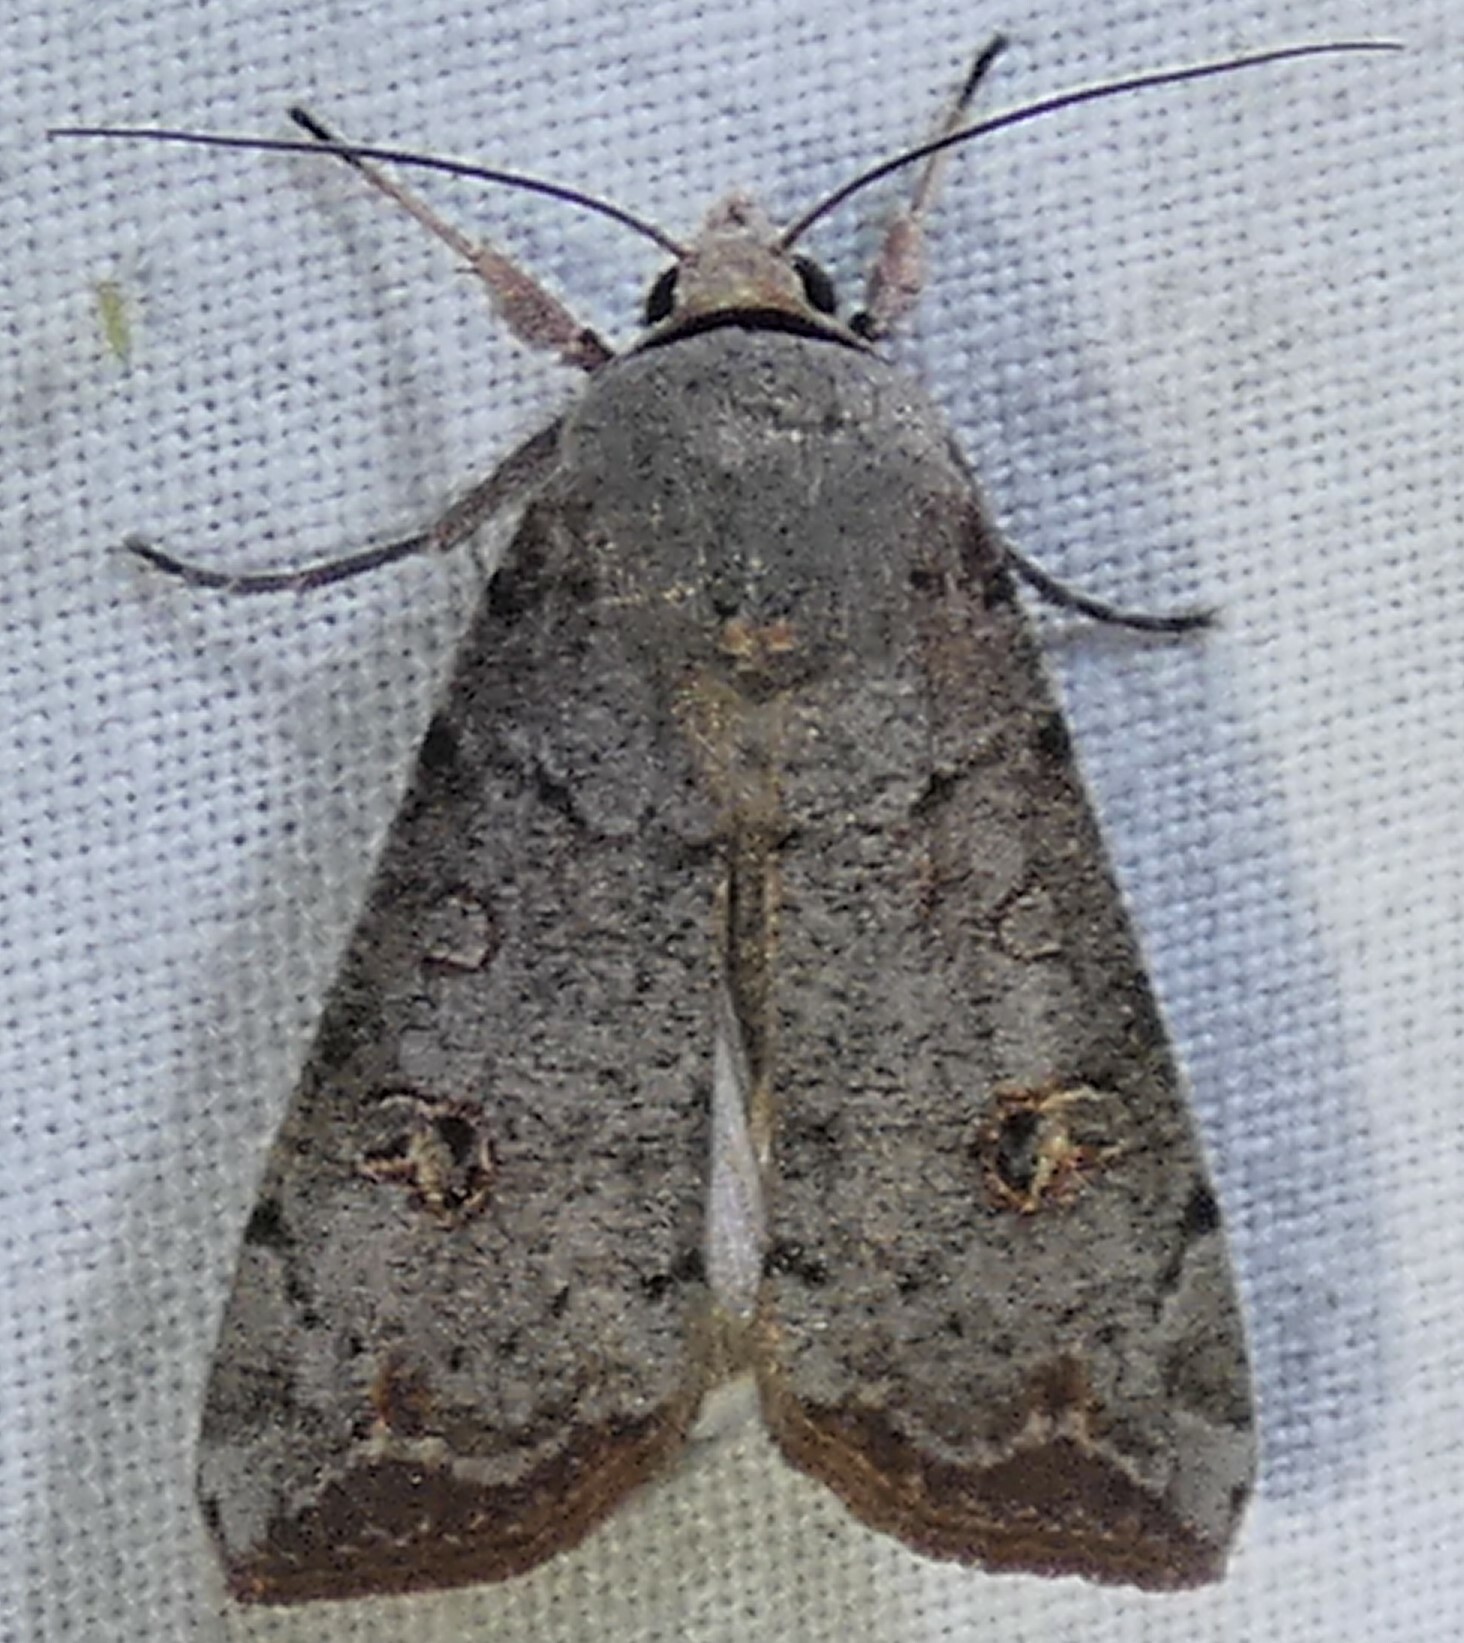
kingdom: Animalia
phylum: Arthropoda
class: Insecta
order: Lepidoptera
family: Noctuidae
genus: Anicla
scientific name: Anicla infecta
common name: Green cutworm
